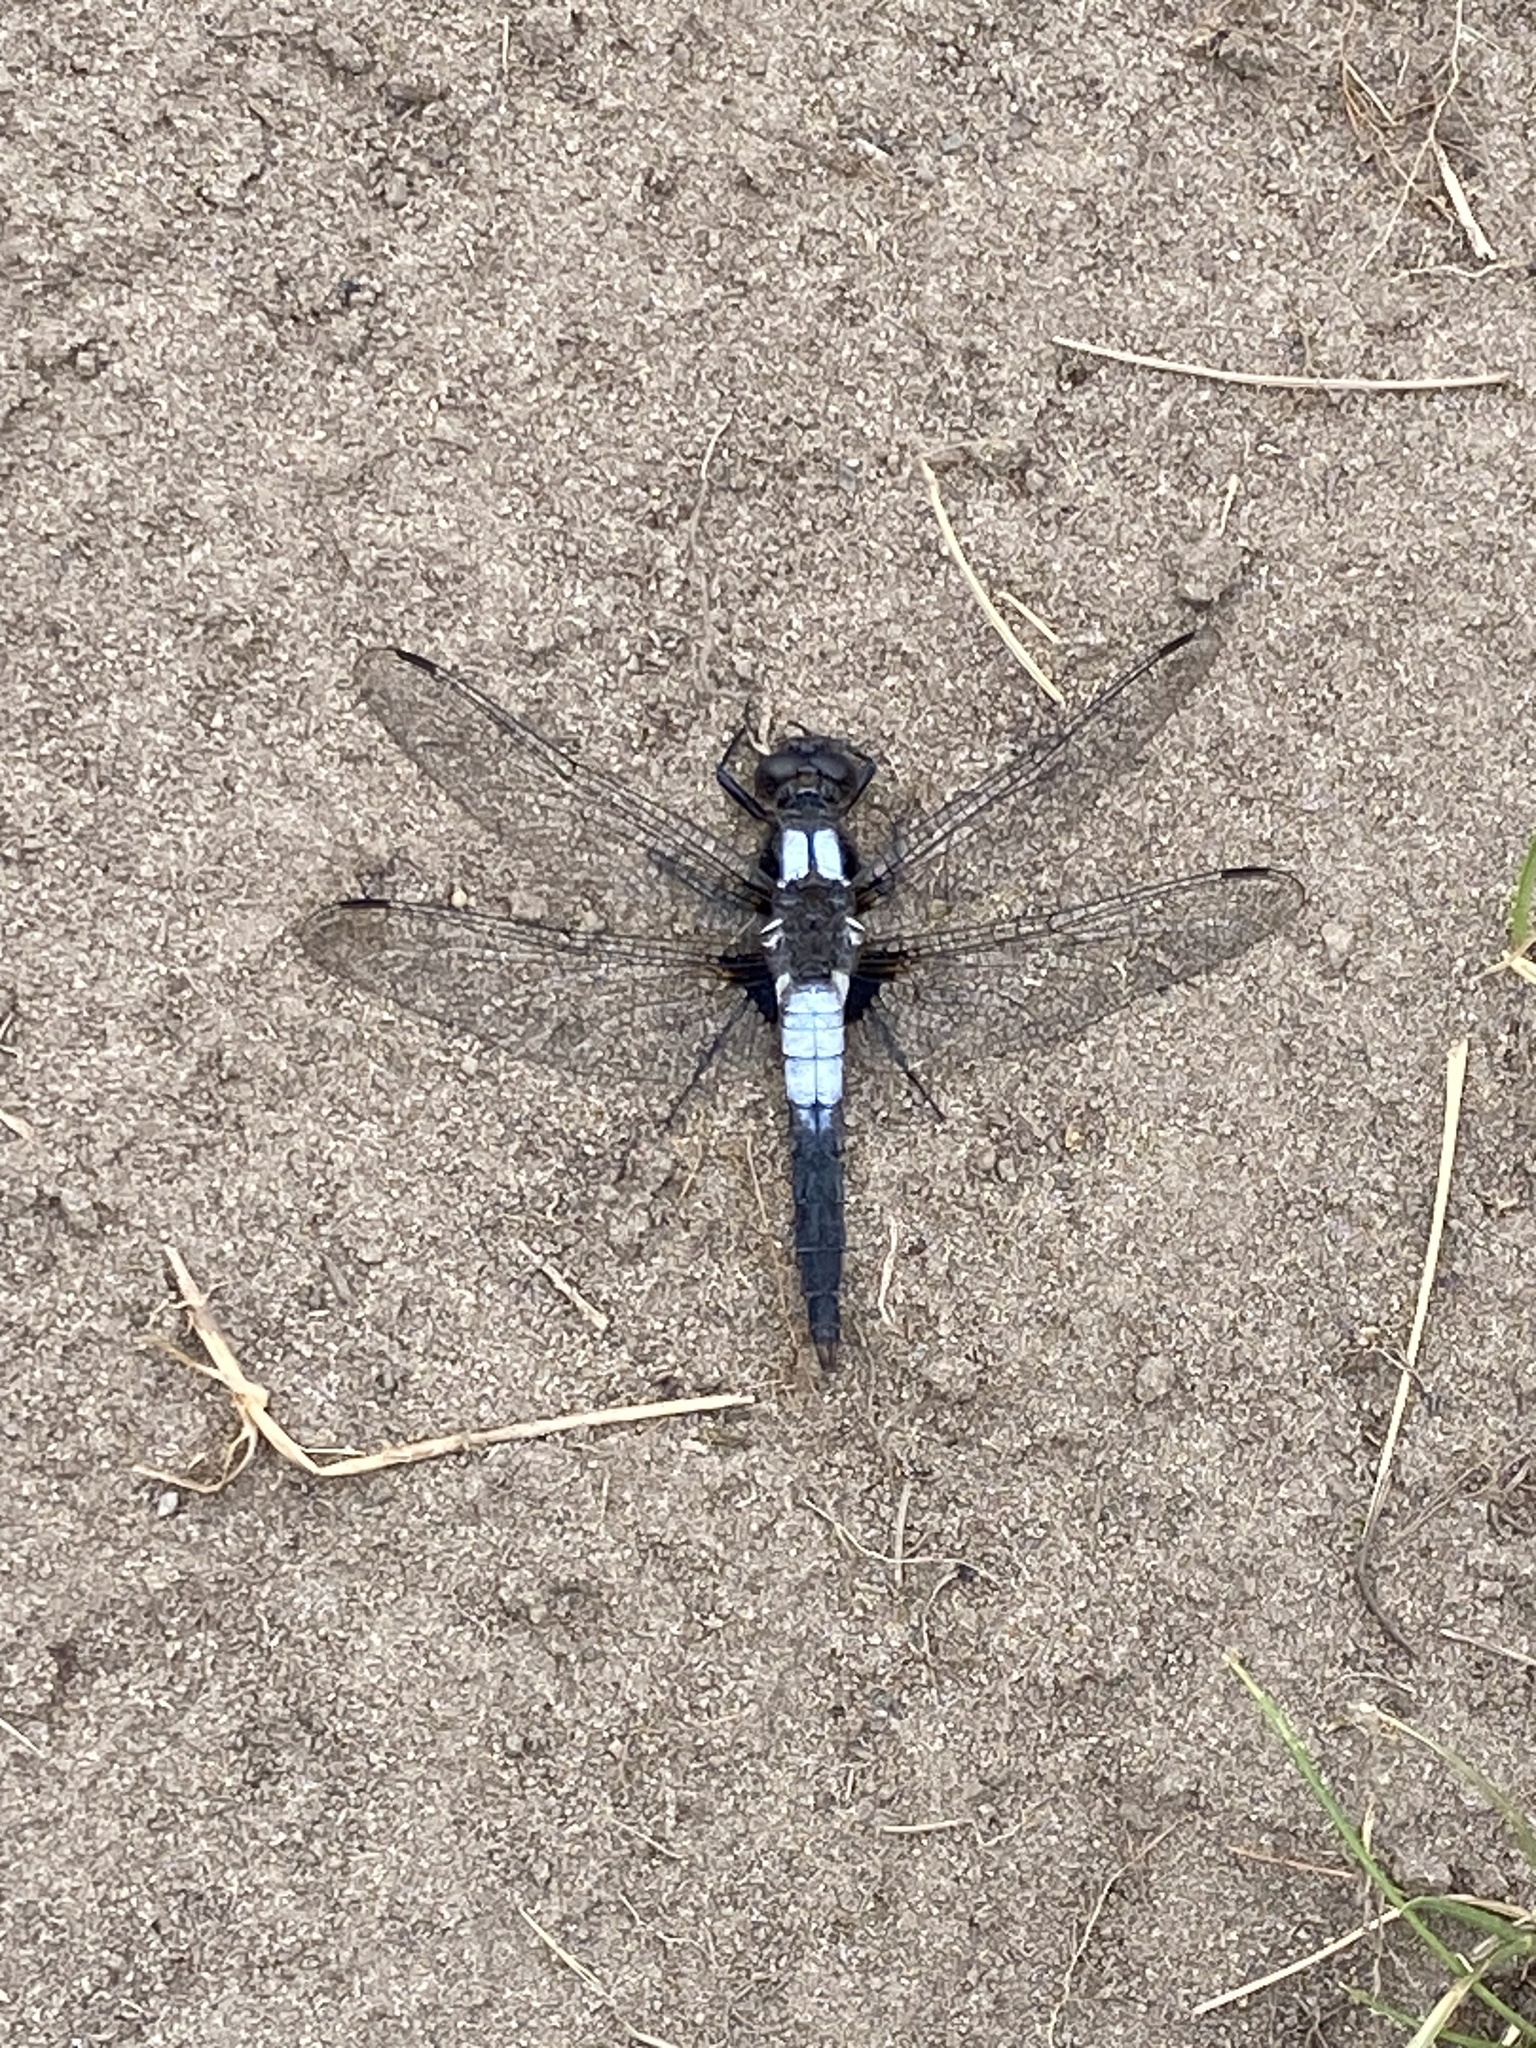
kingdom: Animalia
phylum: Arthropoda
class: Insecta
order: Odonata
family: Libellulidae
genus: Ladona
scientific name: Ladona julia
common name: Chalk-fronted corporal
